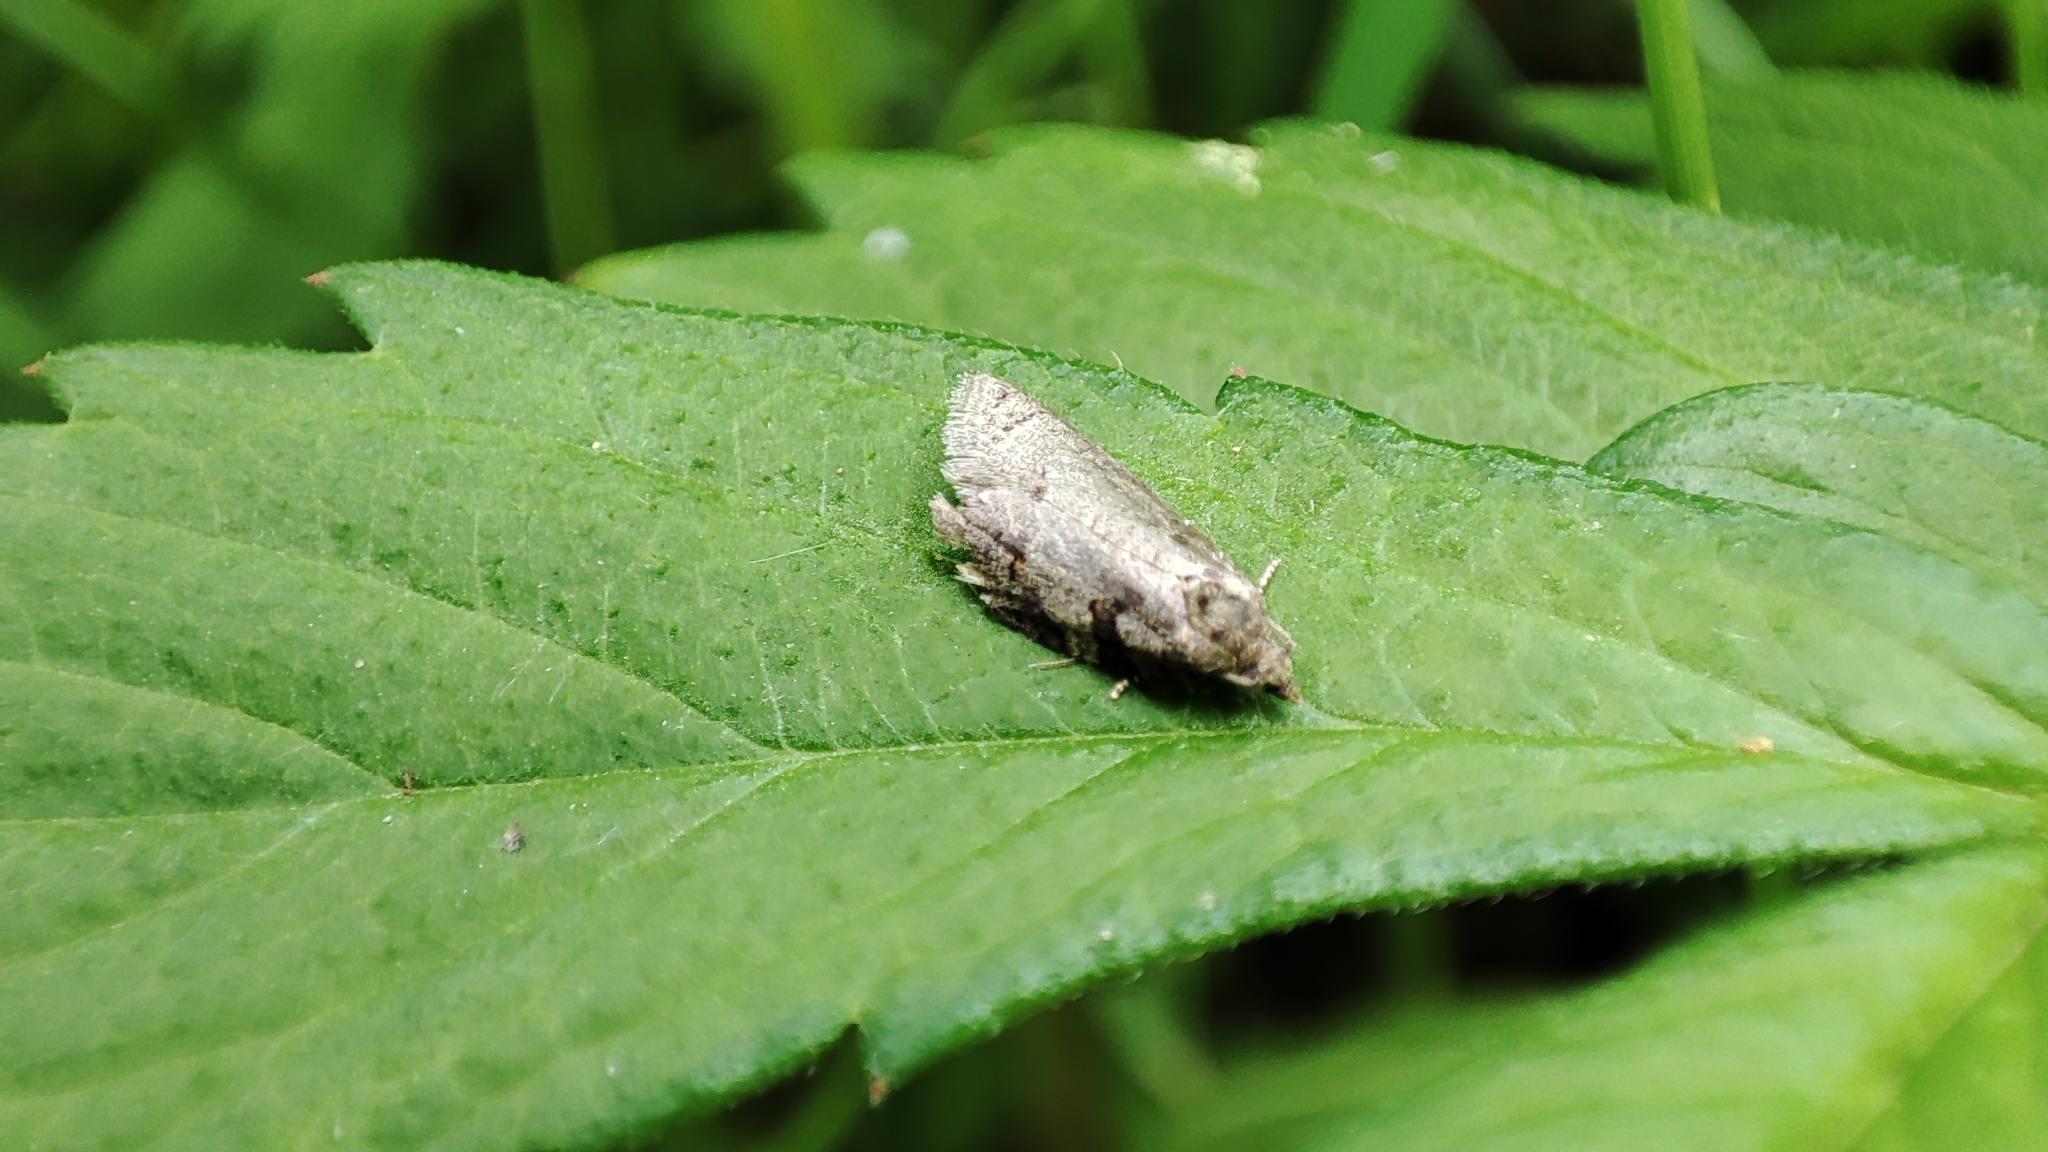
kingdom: Animalia
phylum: Arthropoda
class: Insecta
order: Lepidoptera
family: Tortricidae
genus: Eana
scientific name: Eana incanana
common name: Bluebell shade
